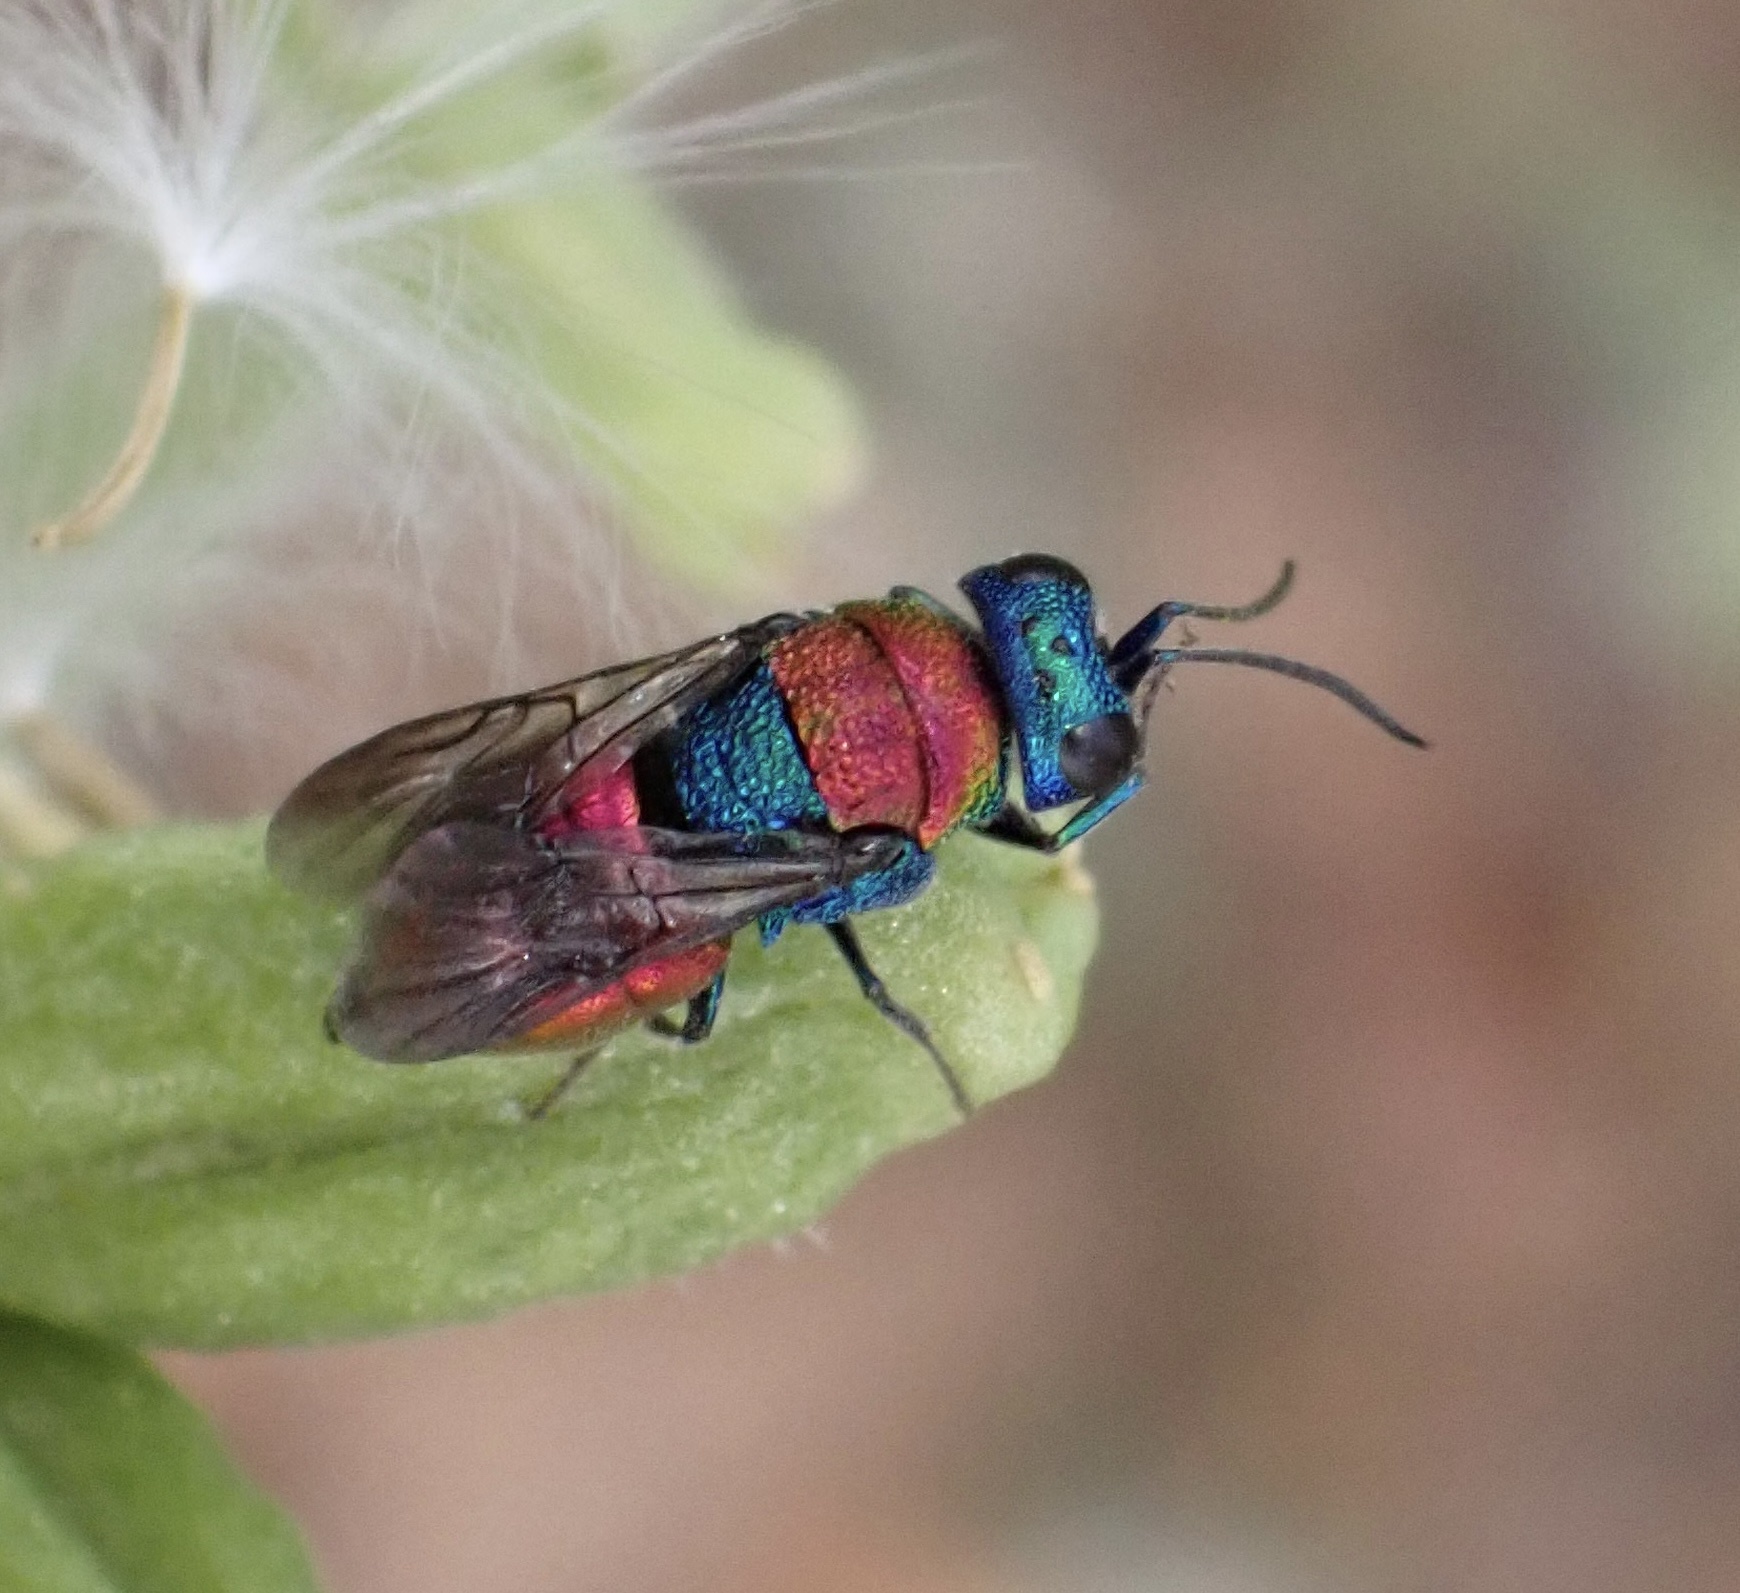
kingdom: Animalia
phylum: Arthropoda
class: Insecta
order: Hymenoptera
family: Chrysididae
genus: Holopyga
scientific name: Holopyga
